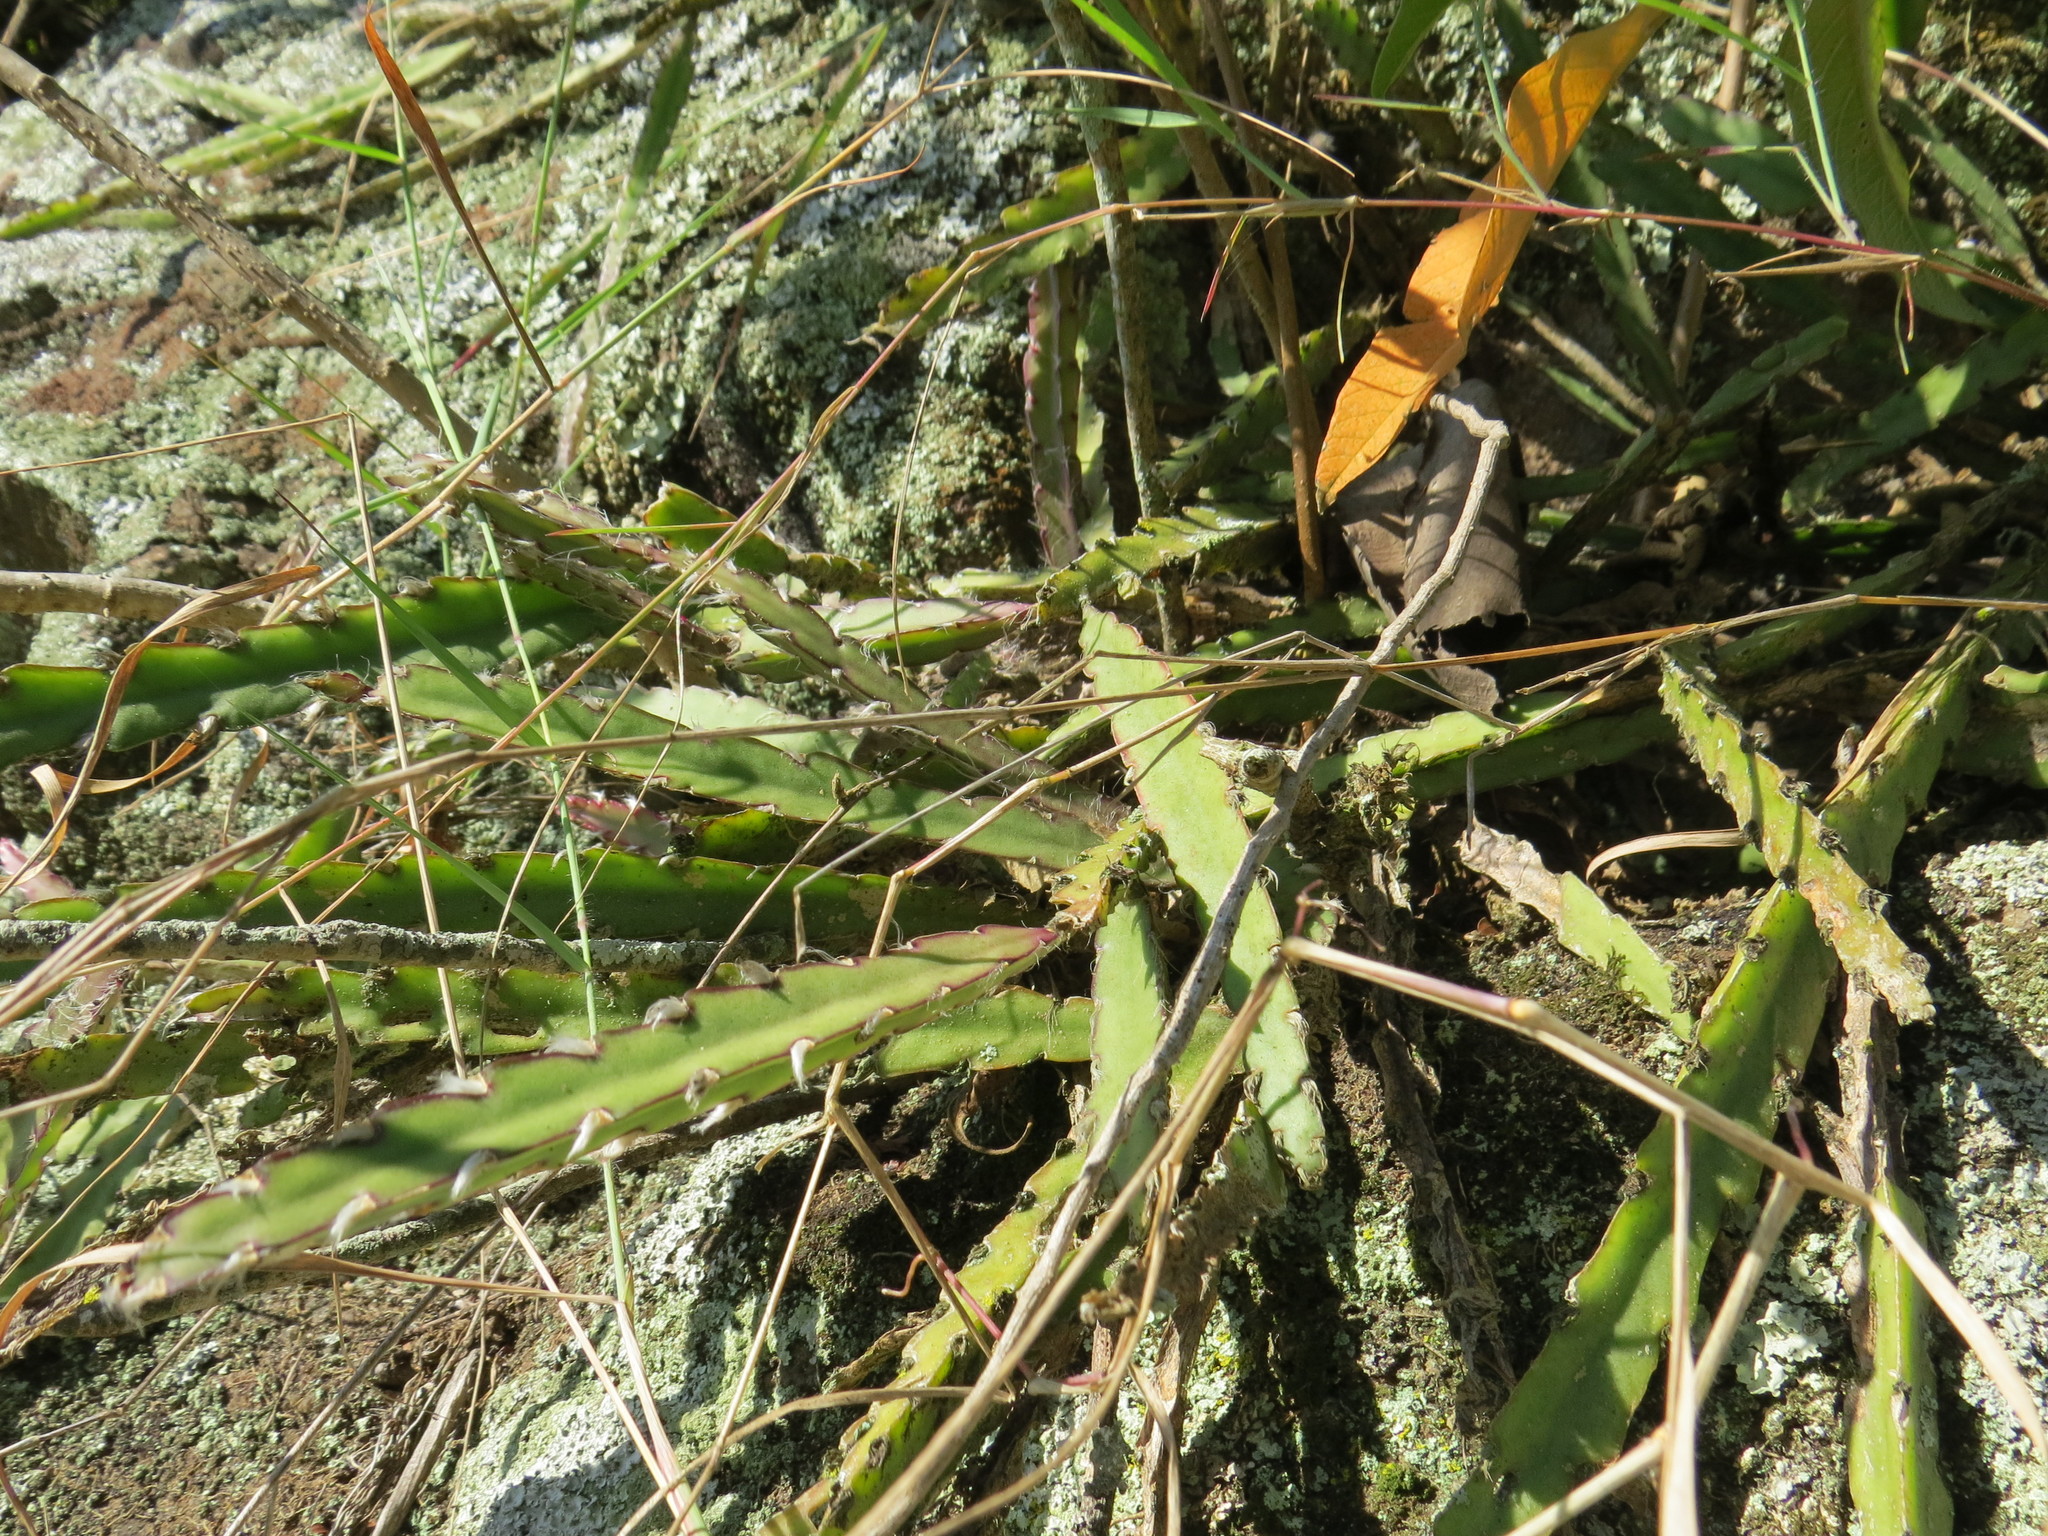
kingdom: Plantae
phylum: Tracheophyta
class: Magnoliopsida
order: Caryophyllales
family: Cactaceae
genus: Lepismium
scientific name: Lepismium cruciforme
